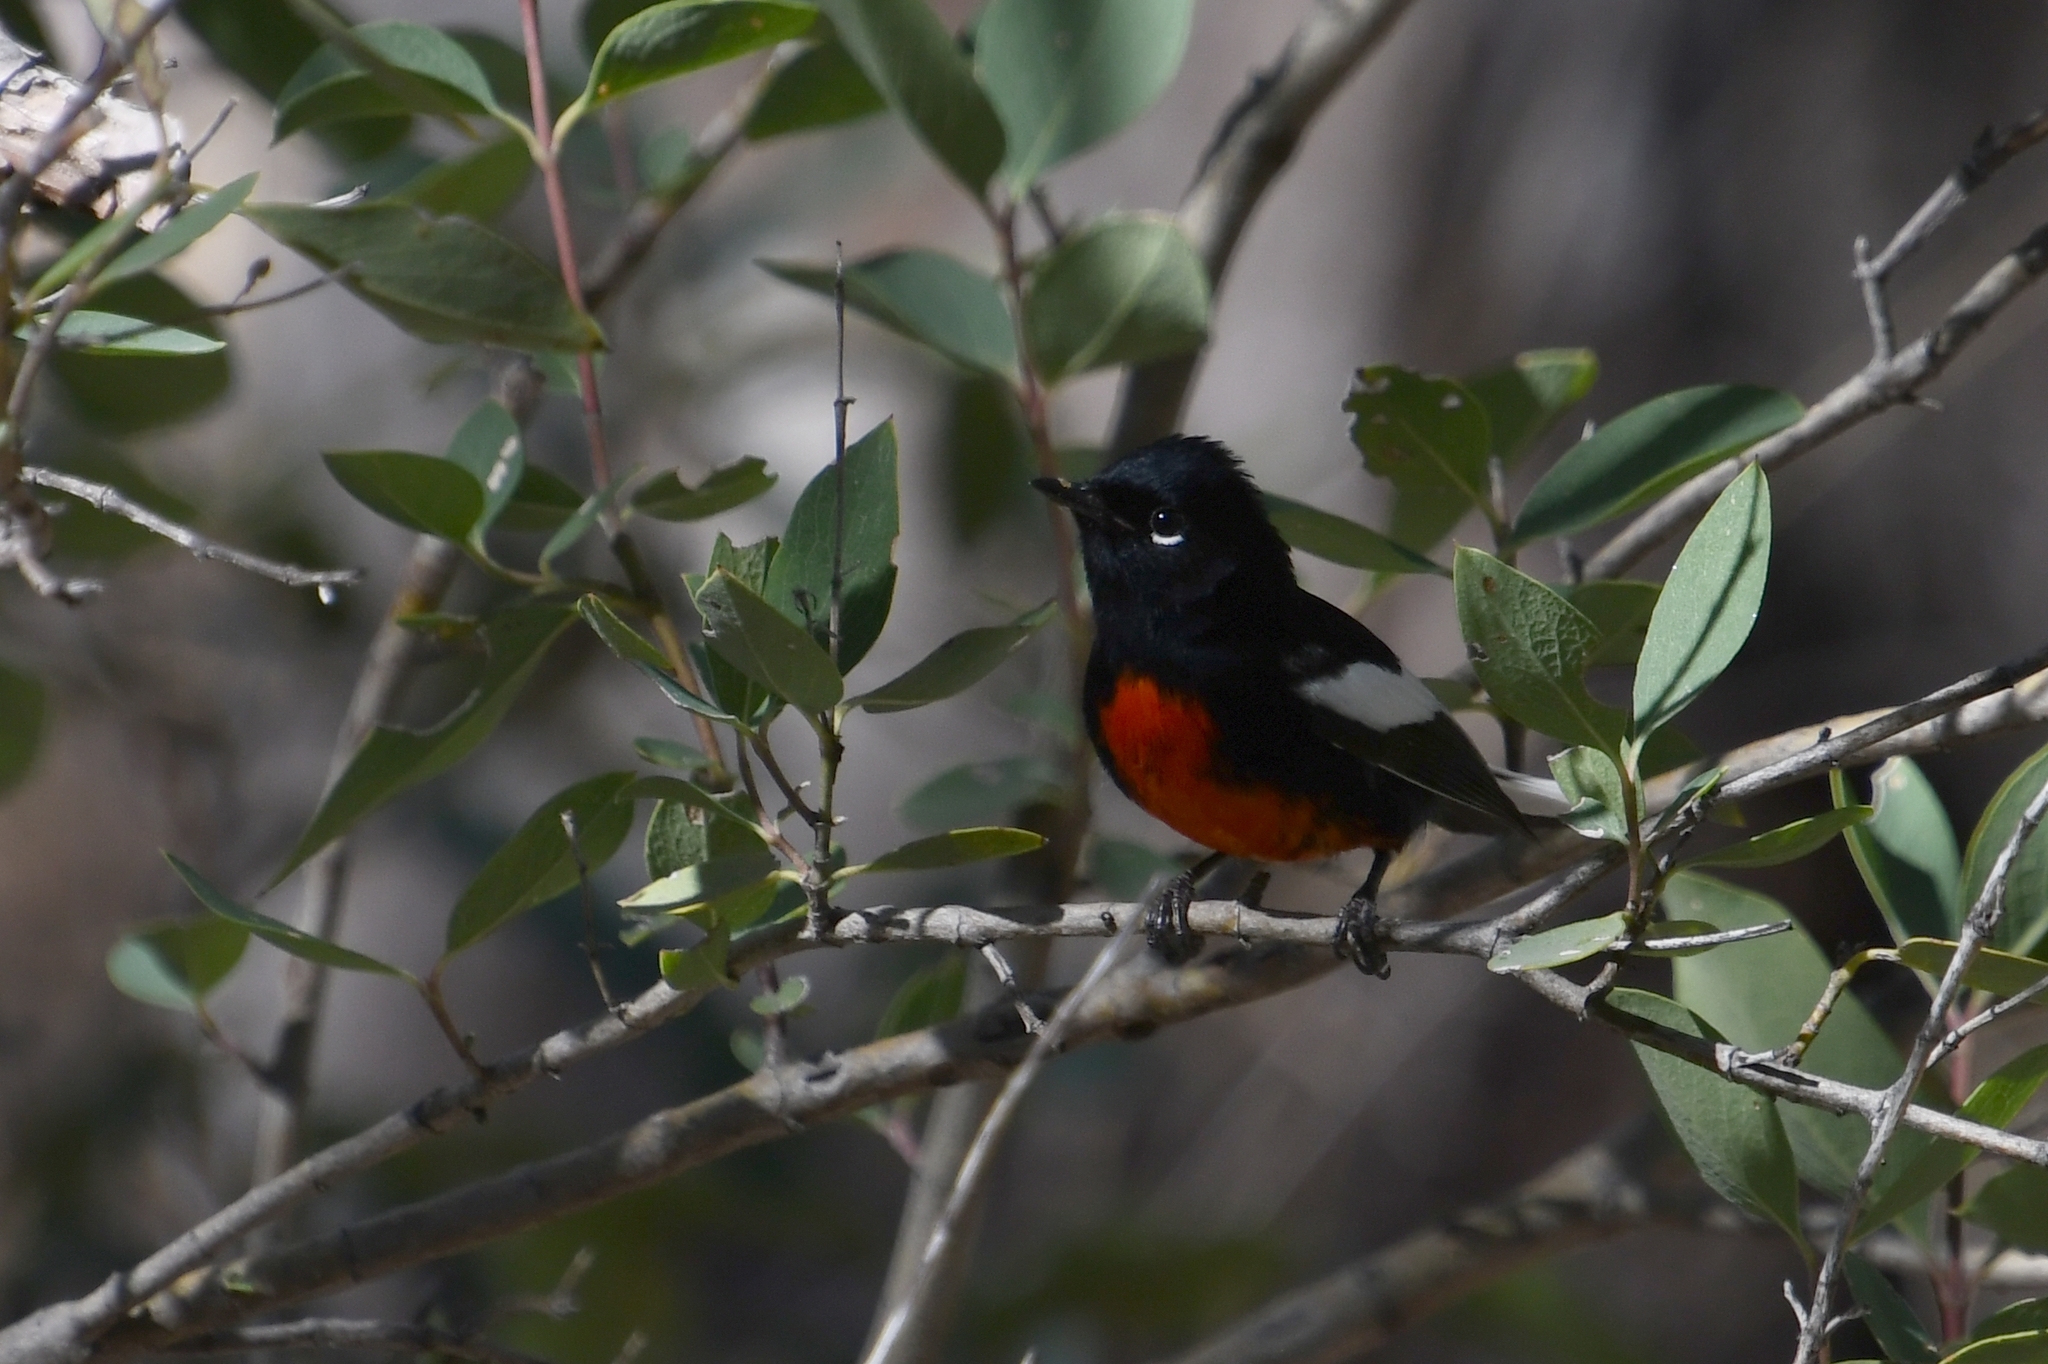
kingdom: Animalia
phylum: Chordata
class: Aves
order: Passeriformes
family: Parulidae
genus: Myioborus
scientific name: Myioborus pictus
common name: Painted whitestart
